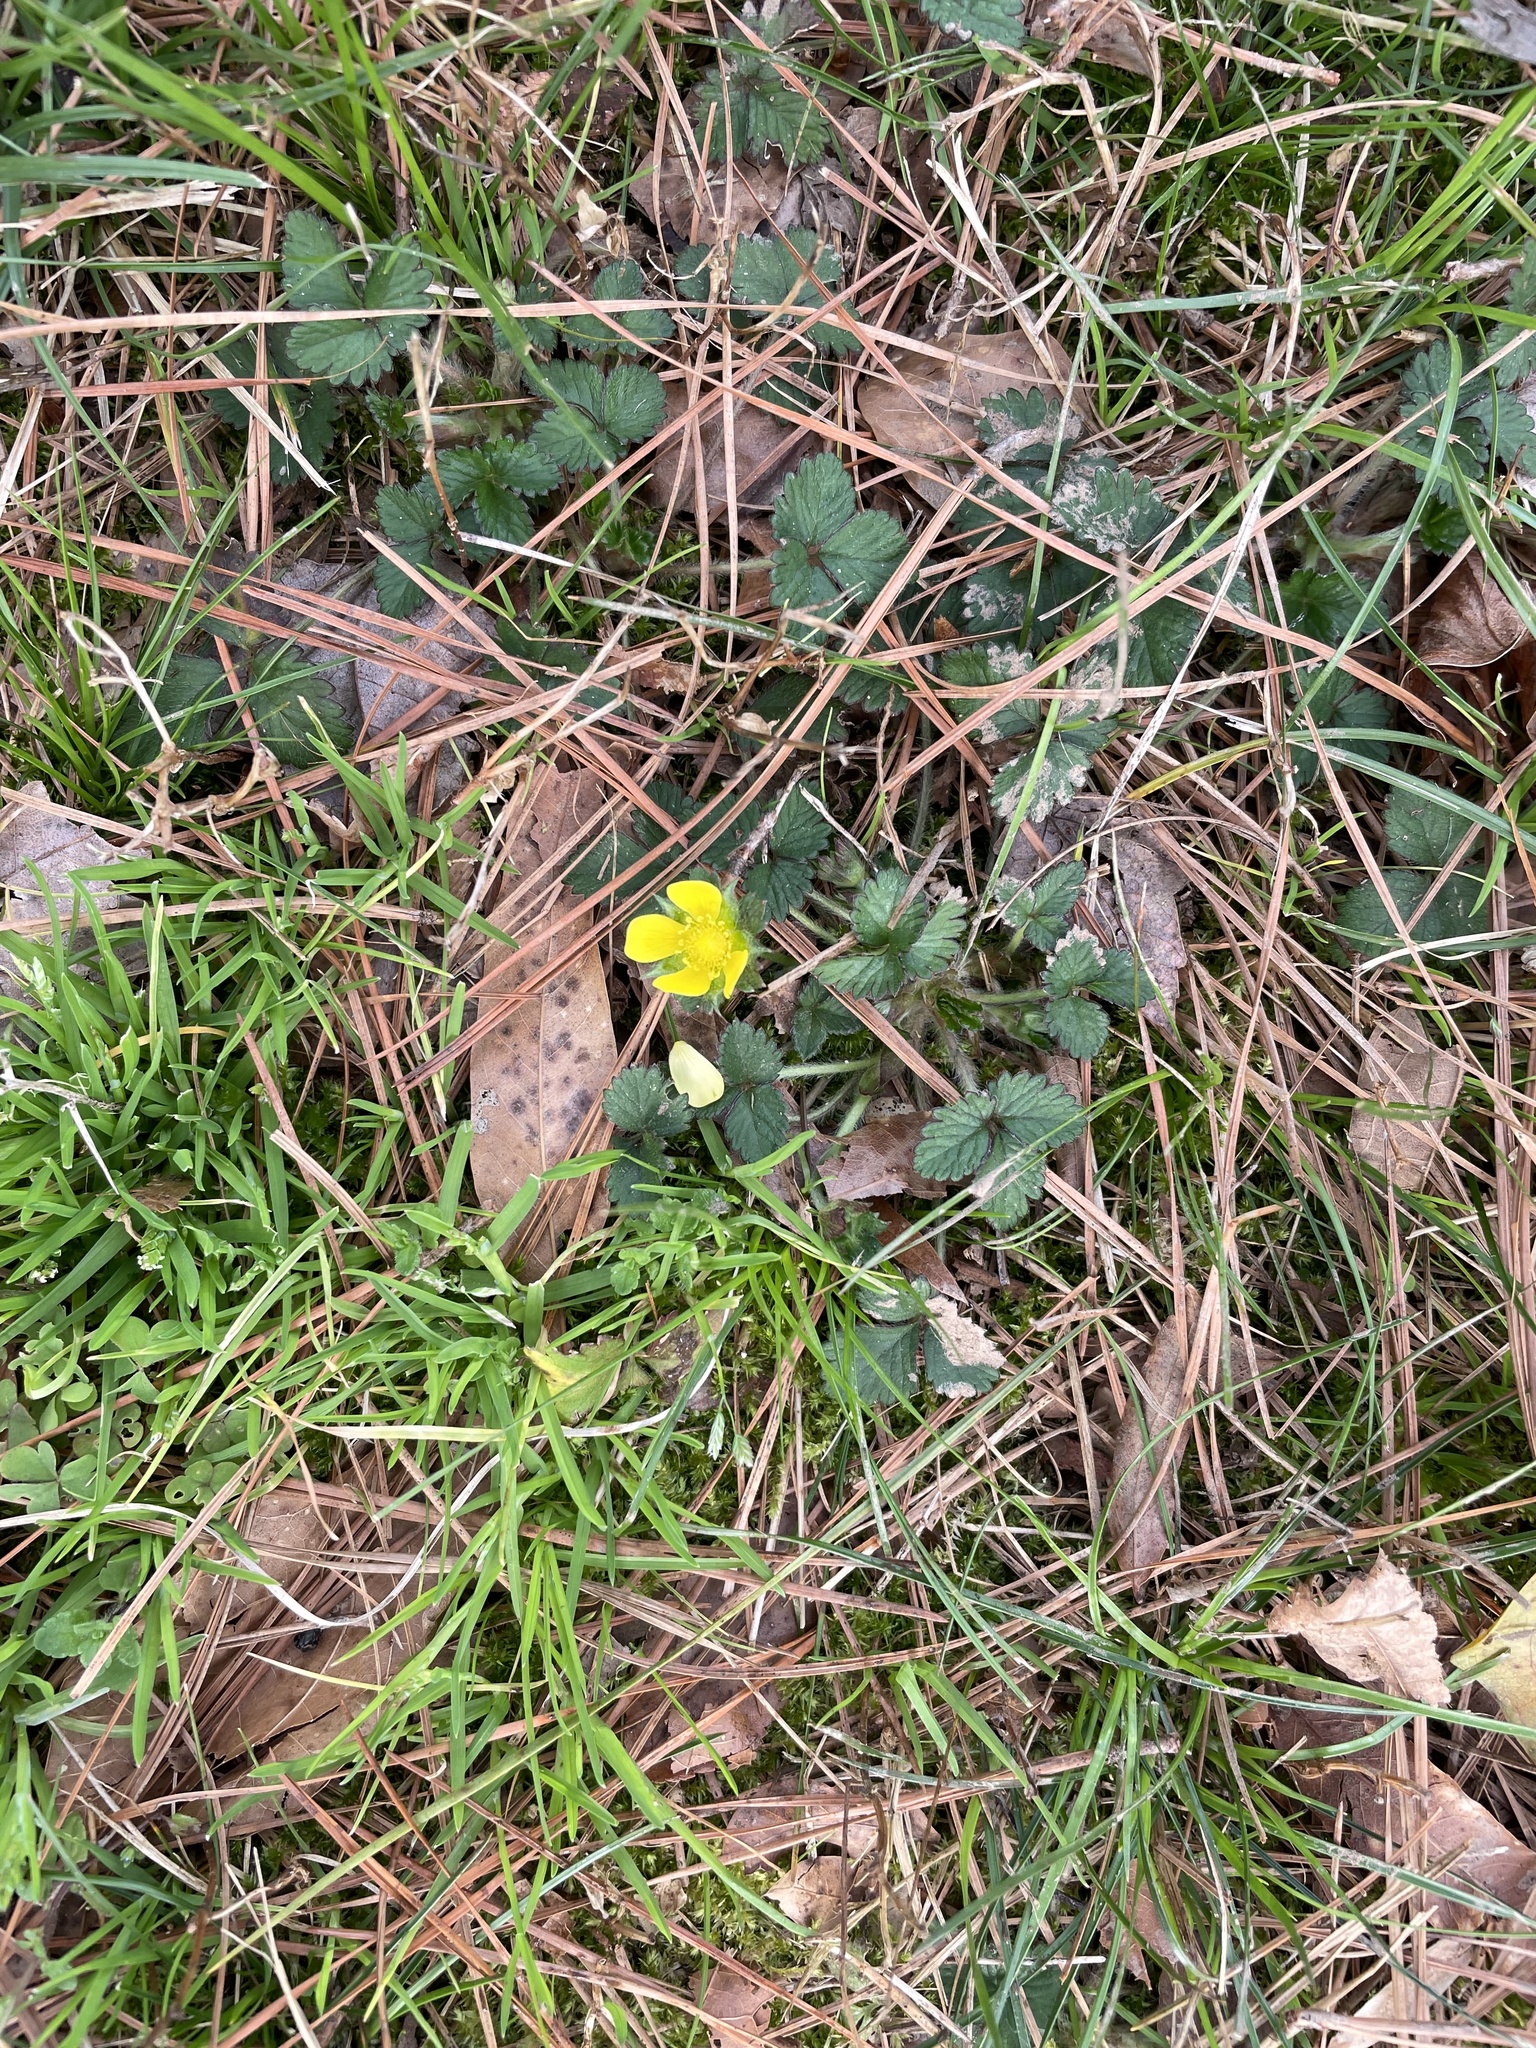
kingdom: Plantae
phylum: Tracheophyta
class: Magnoliopsida
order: Rosales
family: Rosaceae
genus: Potentilla
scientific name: Potentilla indica
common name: Yellow-flowered strawberry
